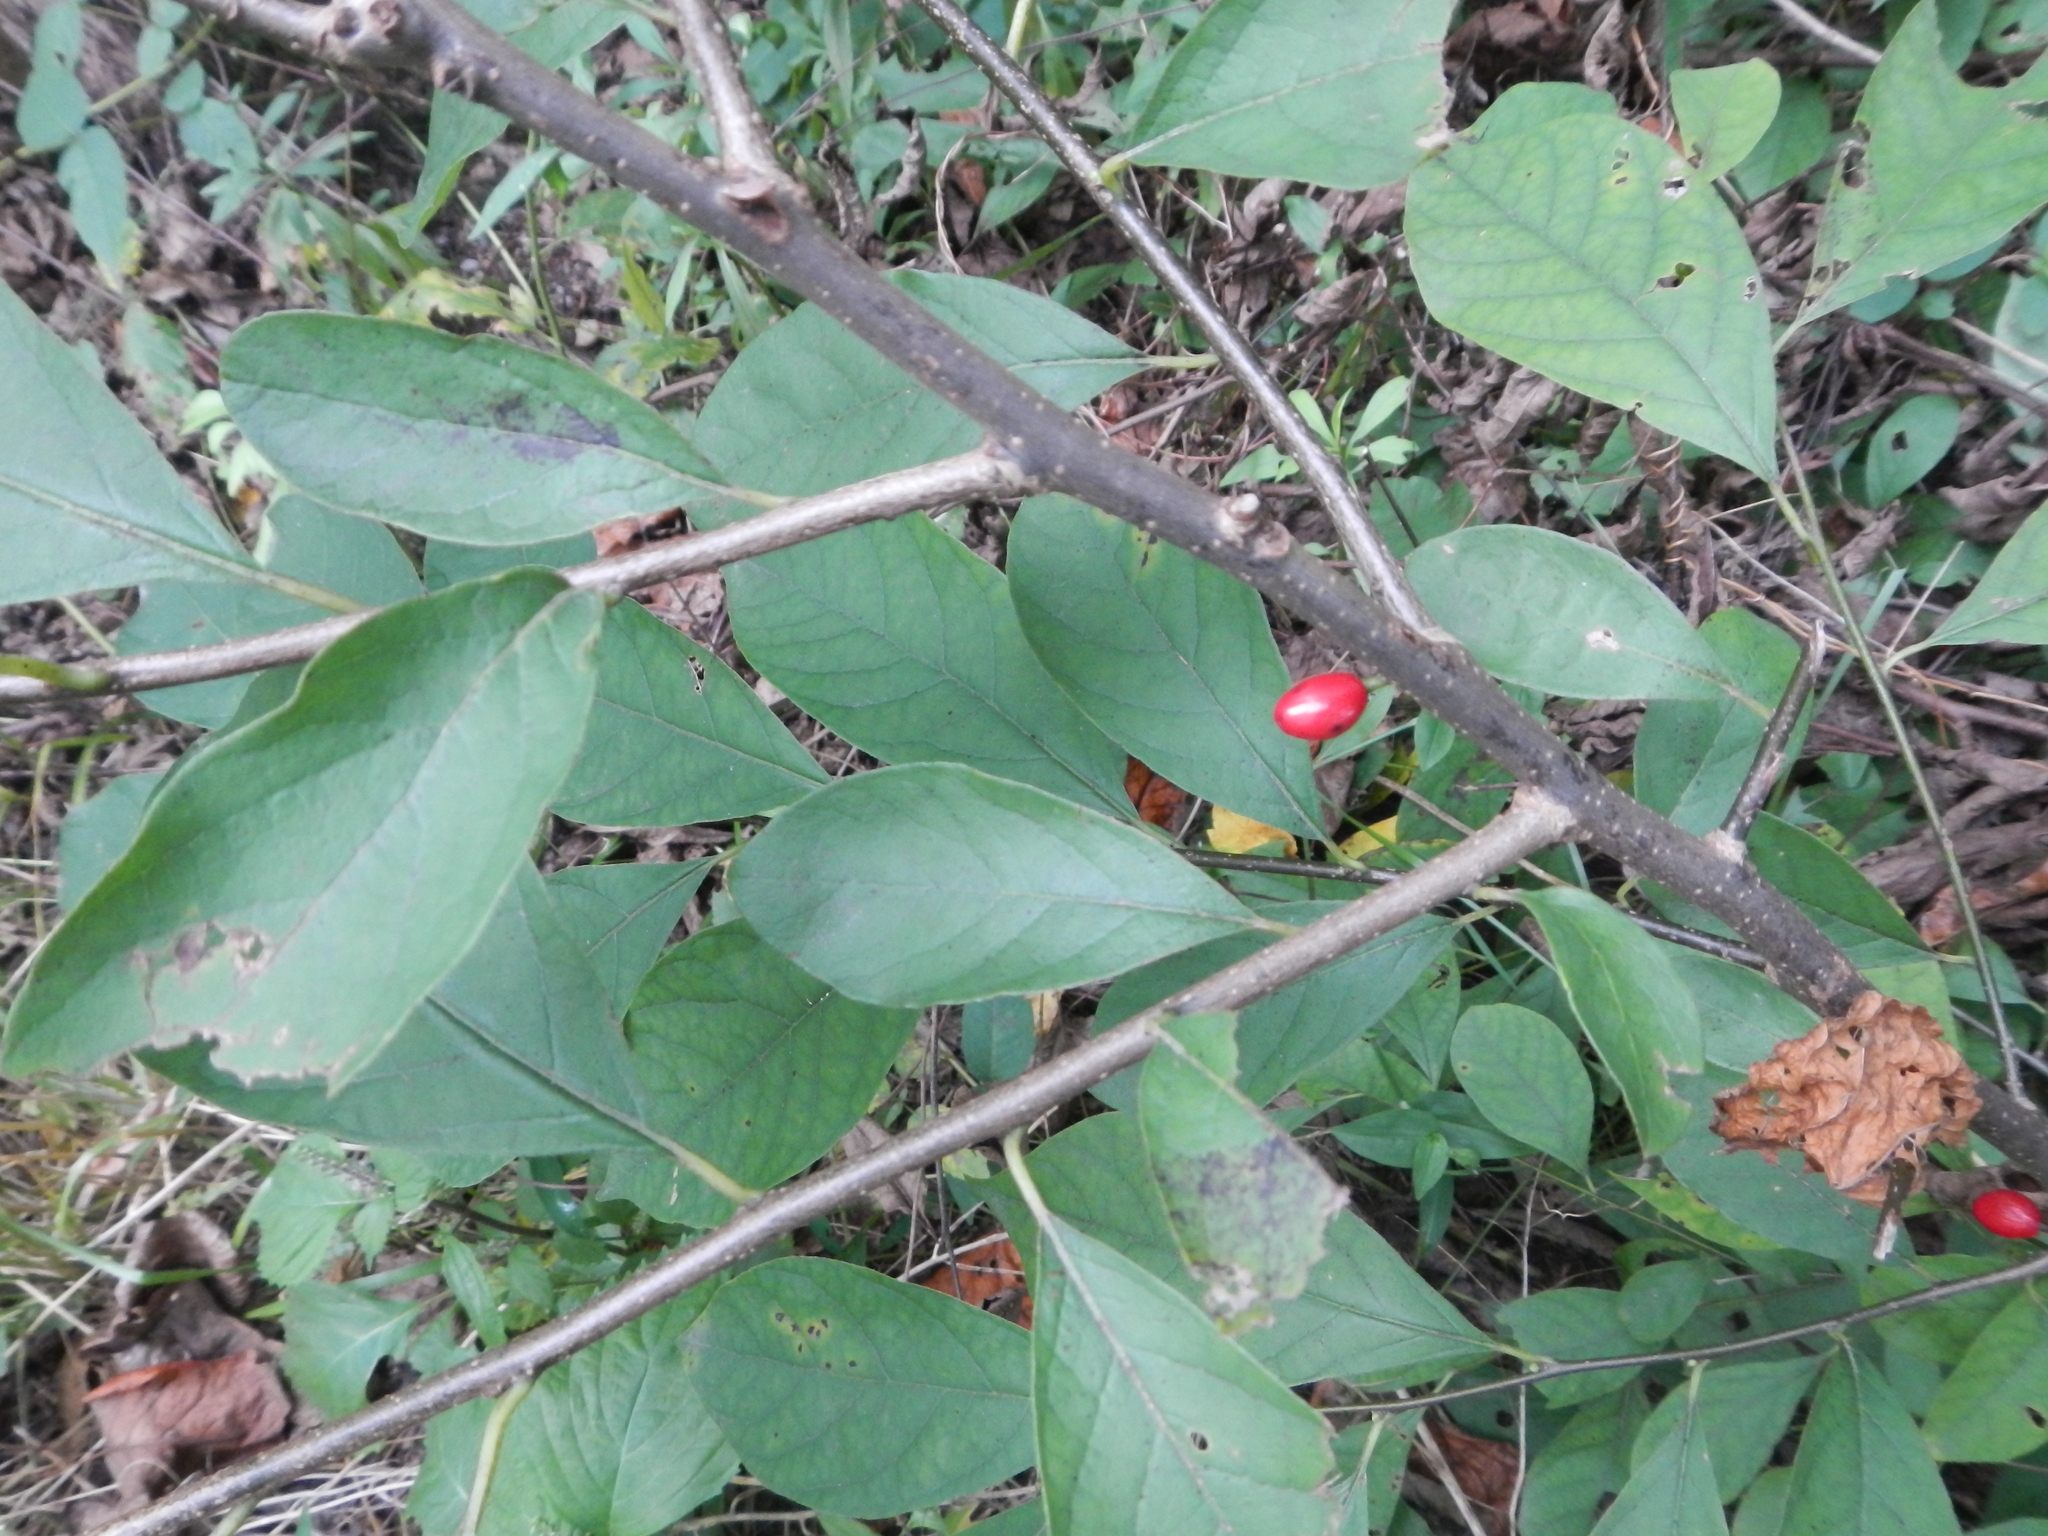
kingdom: Plantae
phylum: Tracheophyta
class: Magnoliopsida
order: Laurales
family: Lauraceae
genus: Lindera
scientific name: Lindera benzoin
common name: Spicebush
